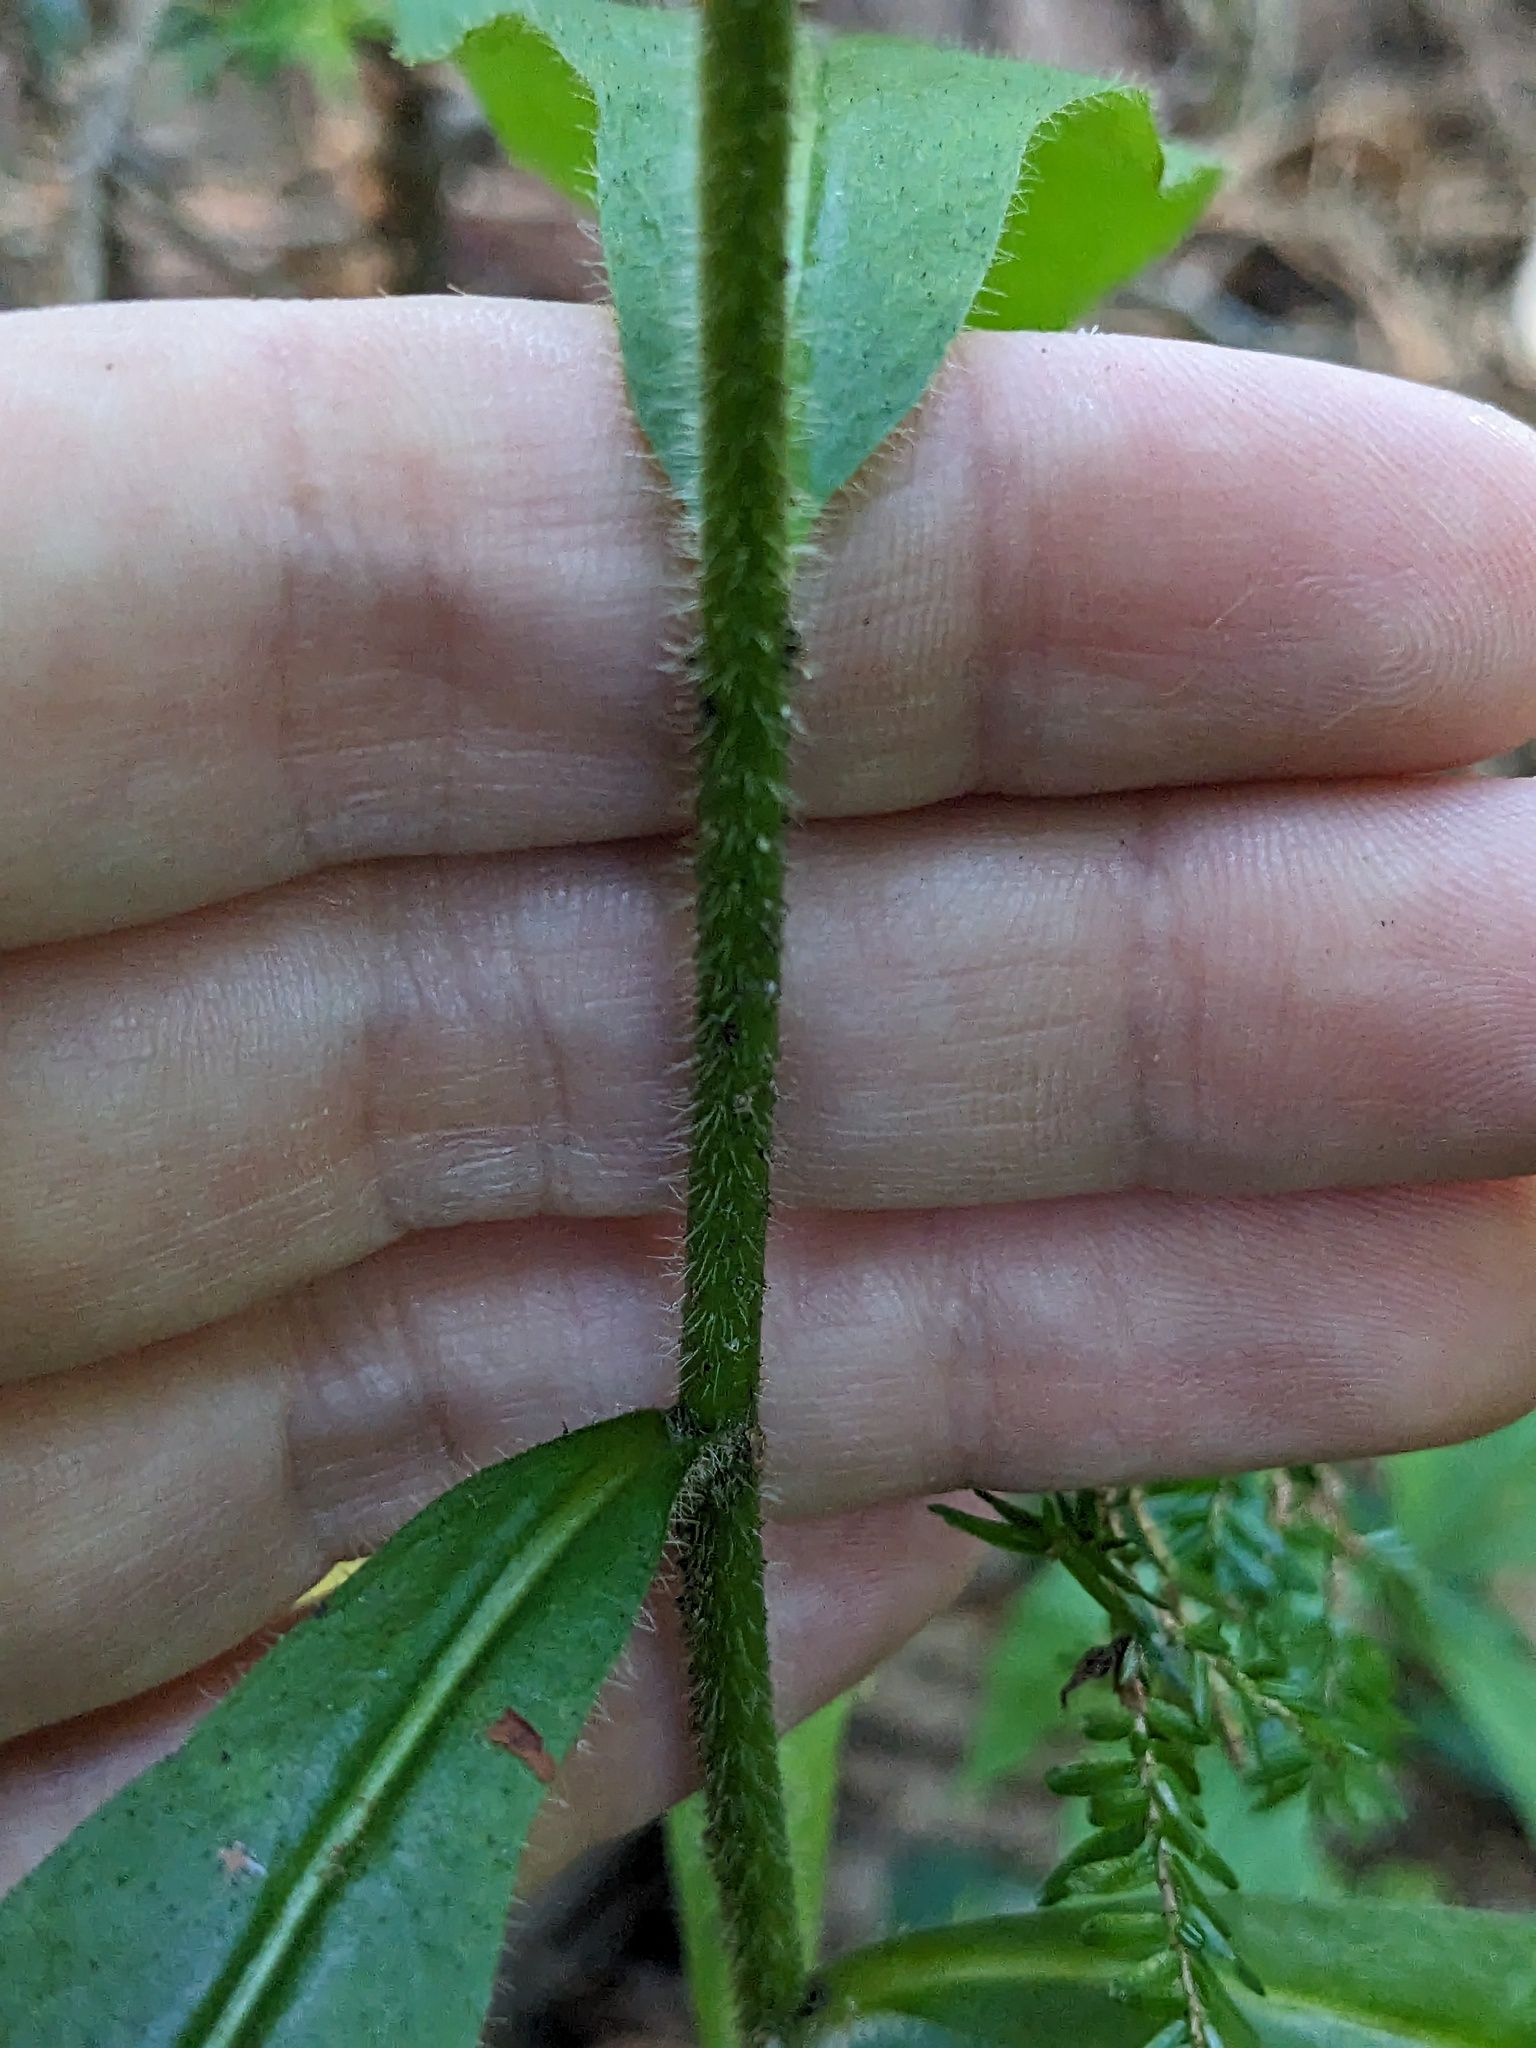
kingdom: Plantae
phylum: Tracheophyta
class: Magnoliopsida
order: Asterales
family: Asteraceae
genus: Hieracium
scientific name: Hieracium scabrum
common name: Rough hawkweed
